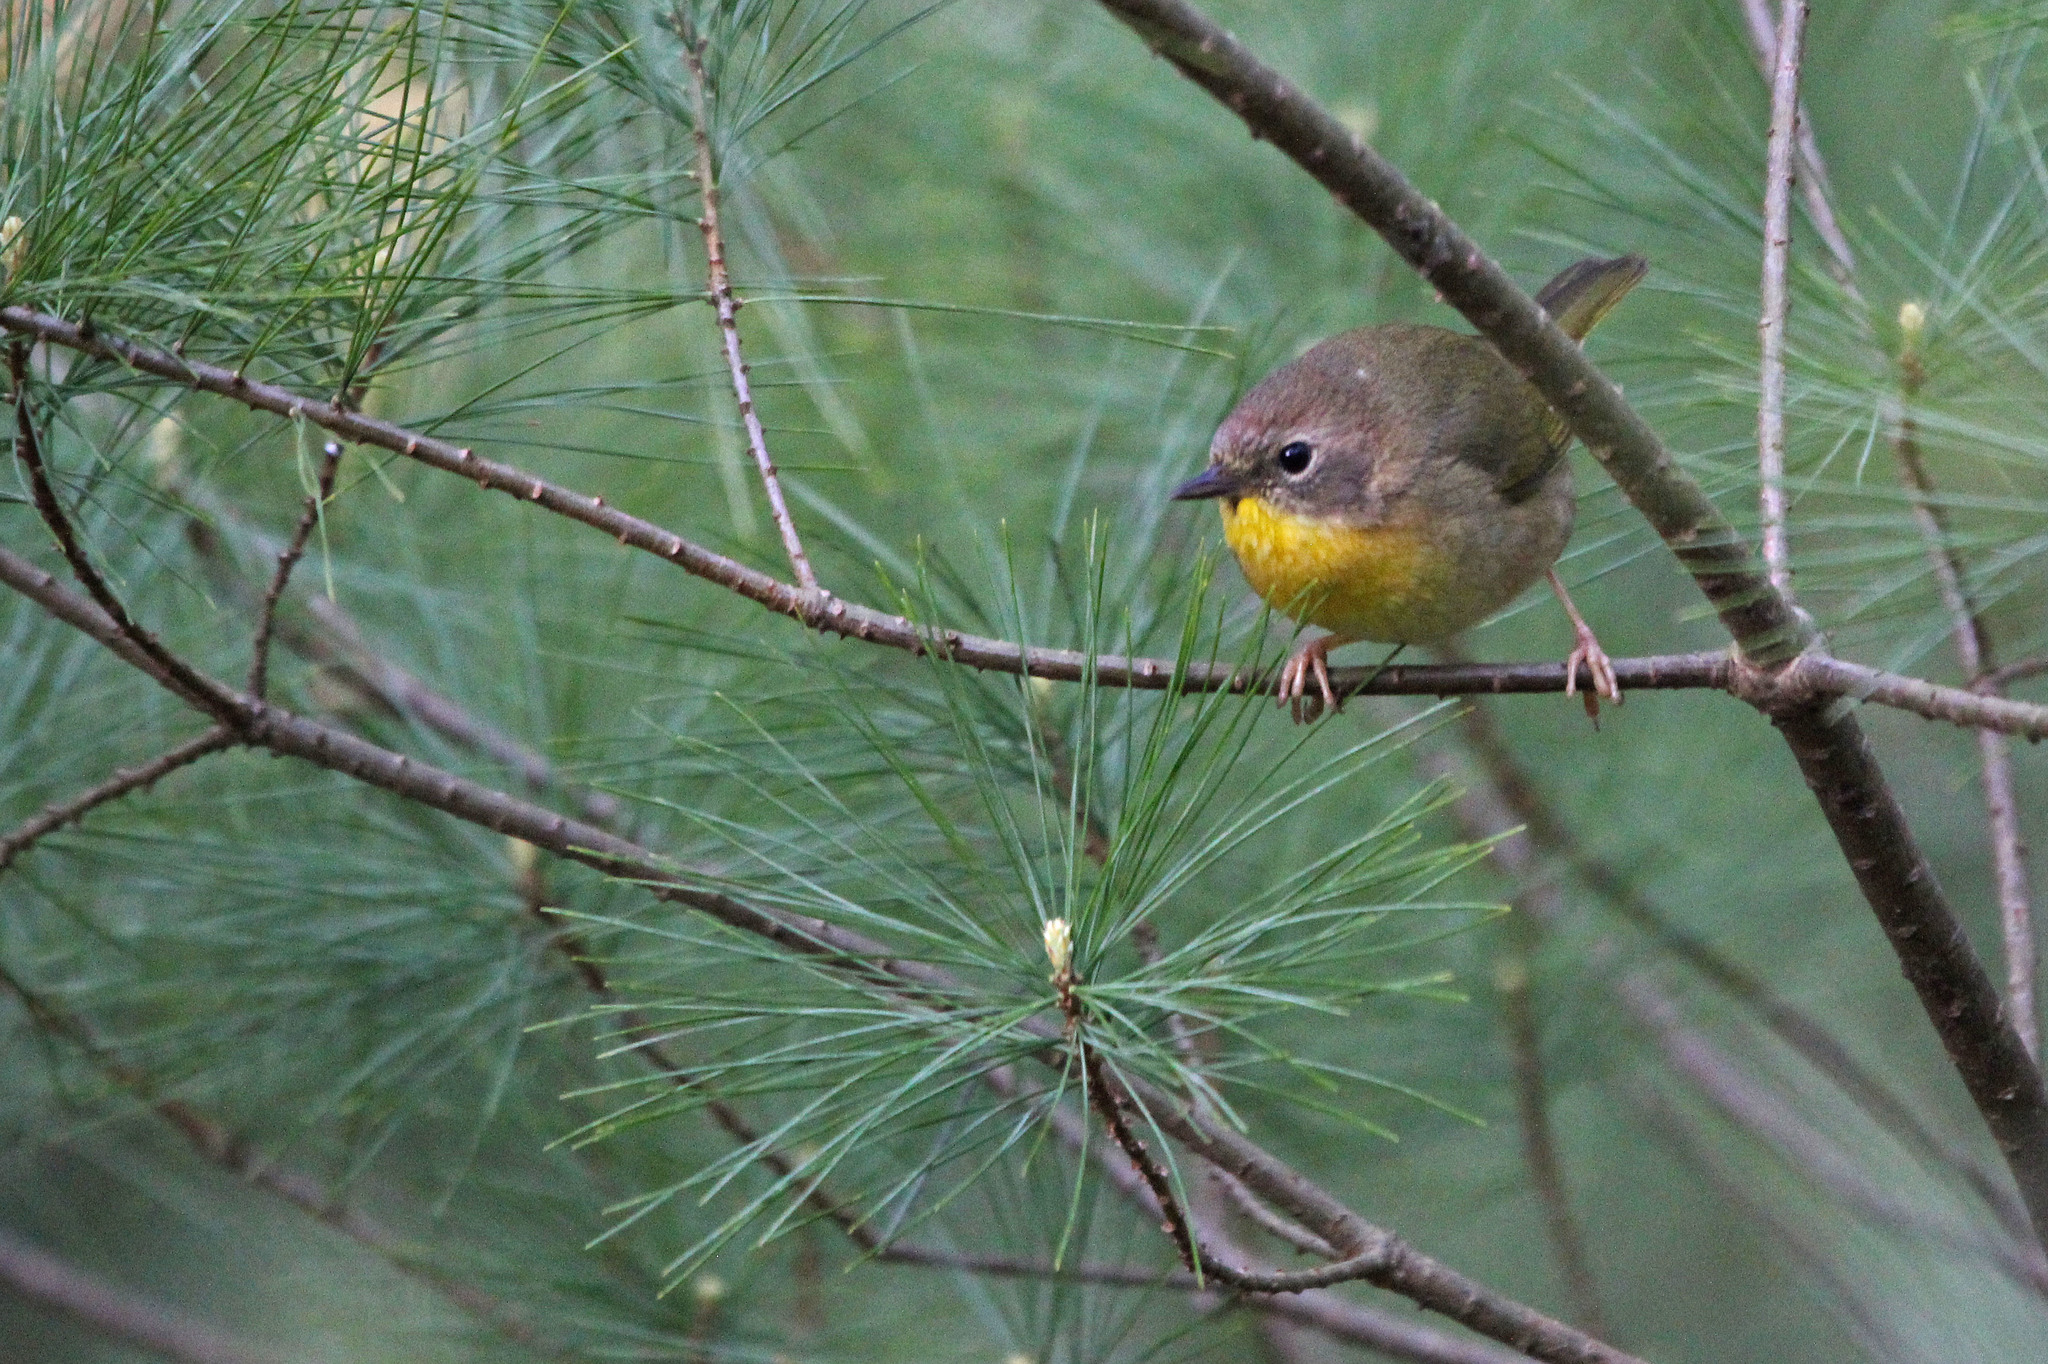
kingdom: Animalia
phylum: Chordata
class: Aves
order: Passeriformes
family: Parulidae
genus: Geothlypis
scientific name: Geothlypis trichas
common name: Common yellowthroat
